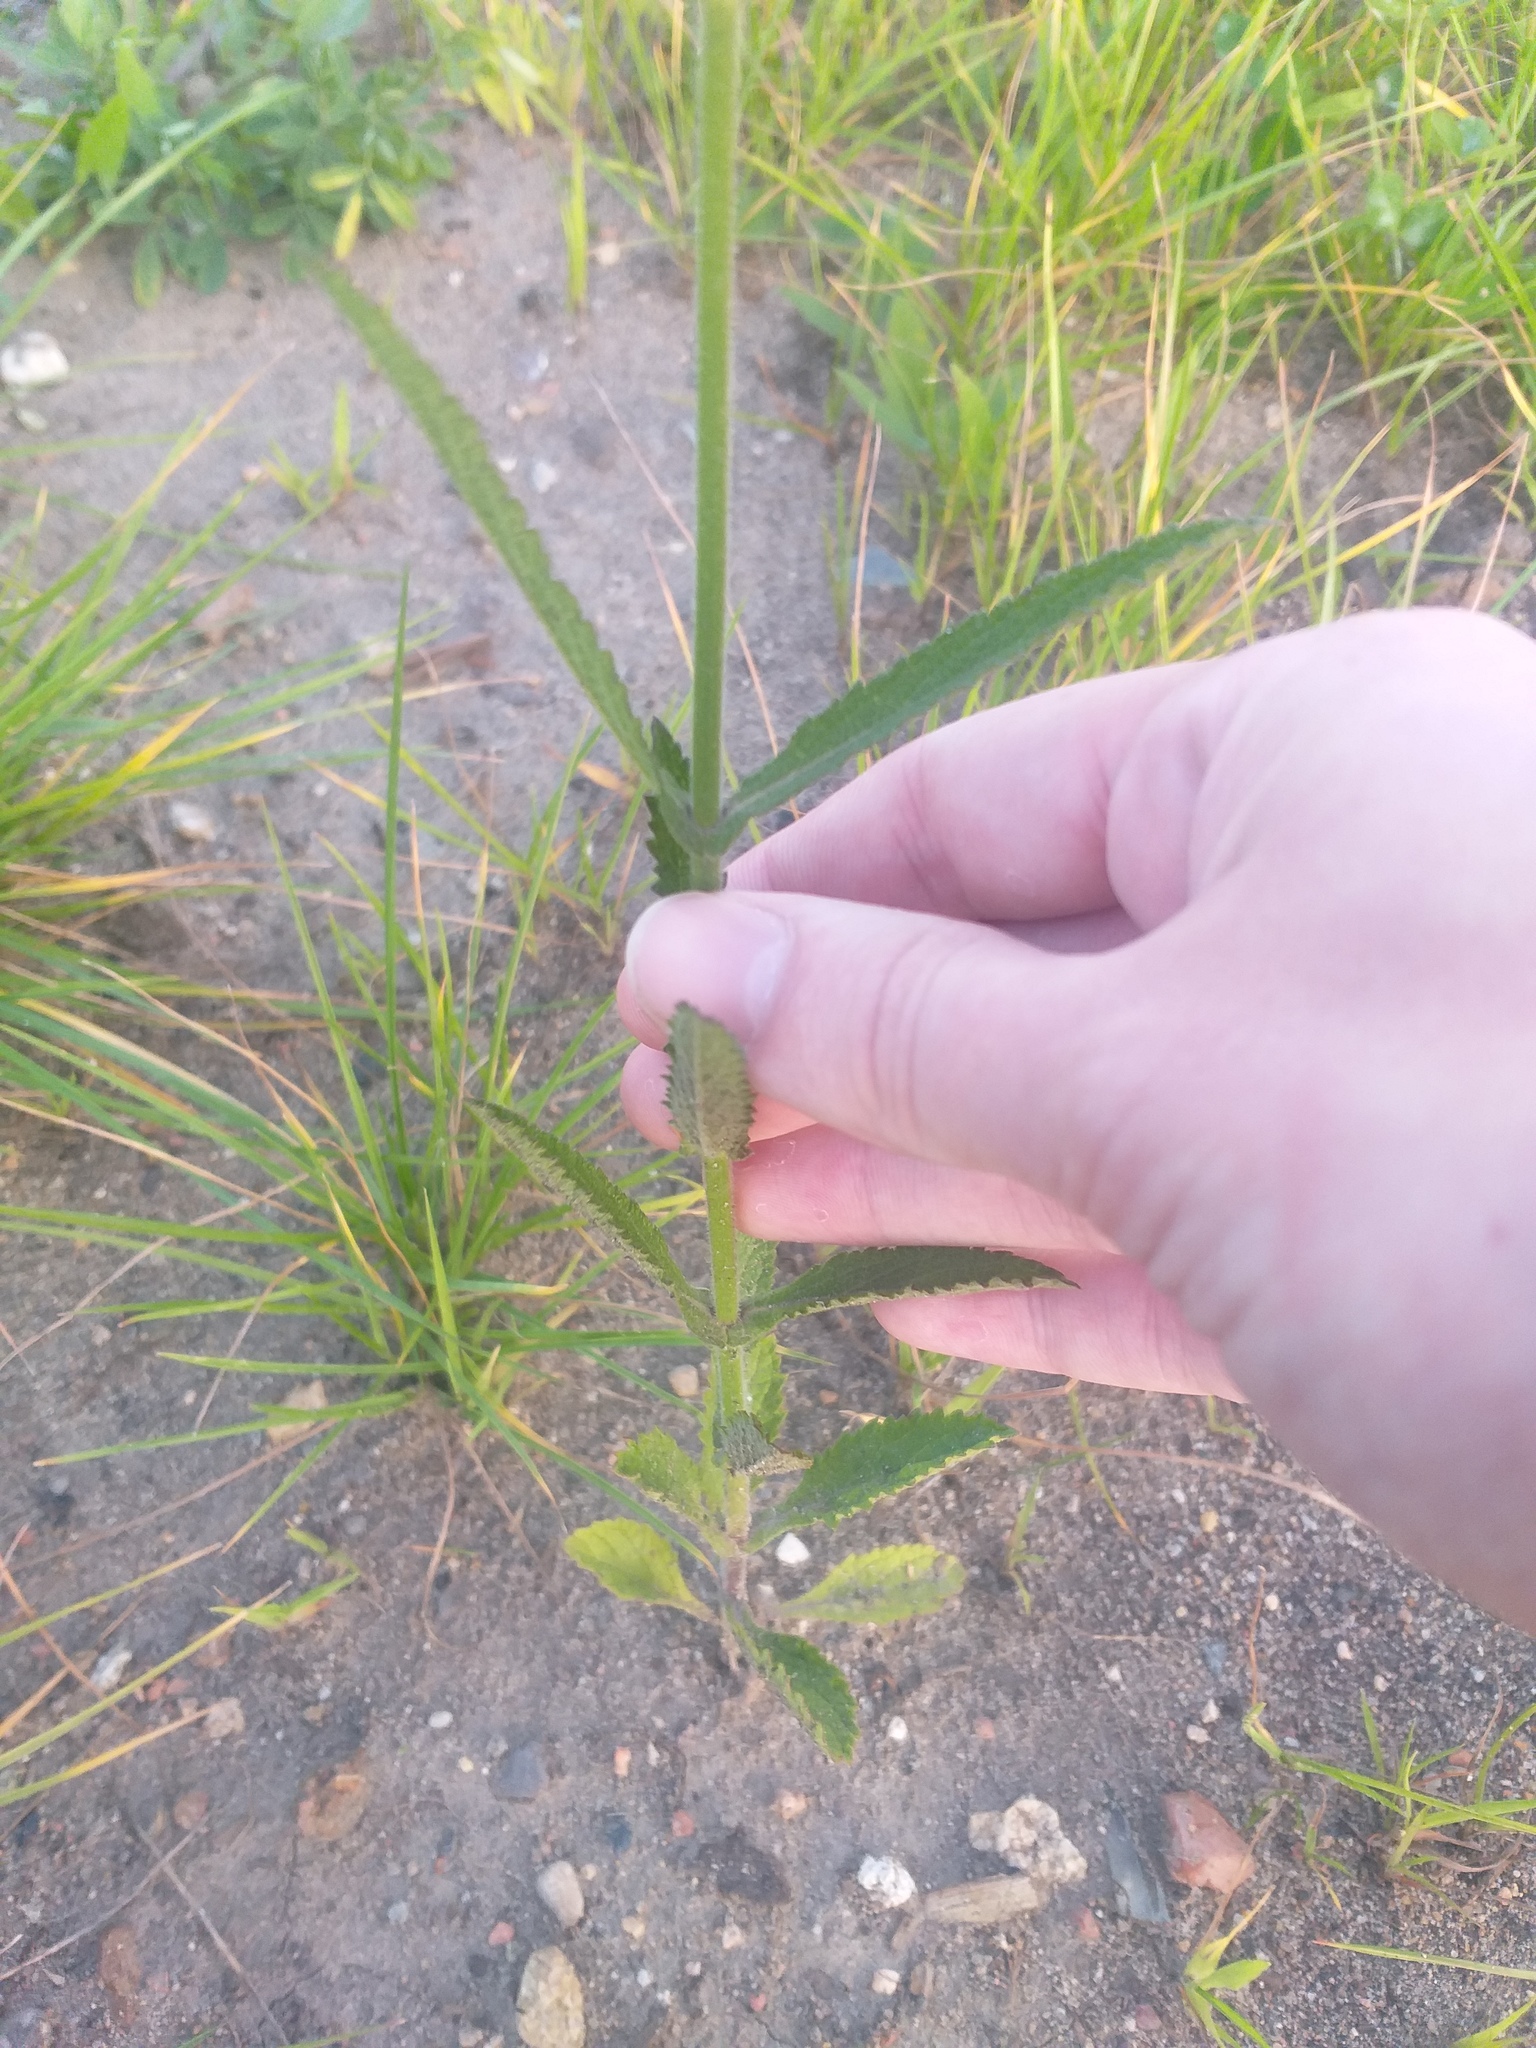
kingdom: Plantae
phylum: Tracheophyta
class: Magnoliopsida
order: Lamiales
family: Verbenaceae
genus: Verbena
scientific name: Verbena bonariensis
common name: Purpletop vervain
